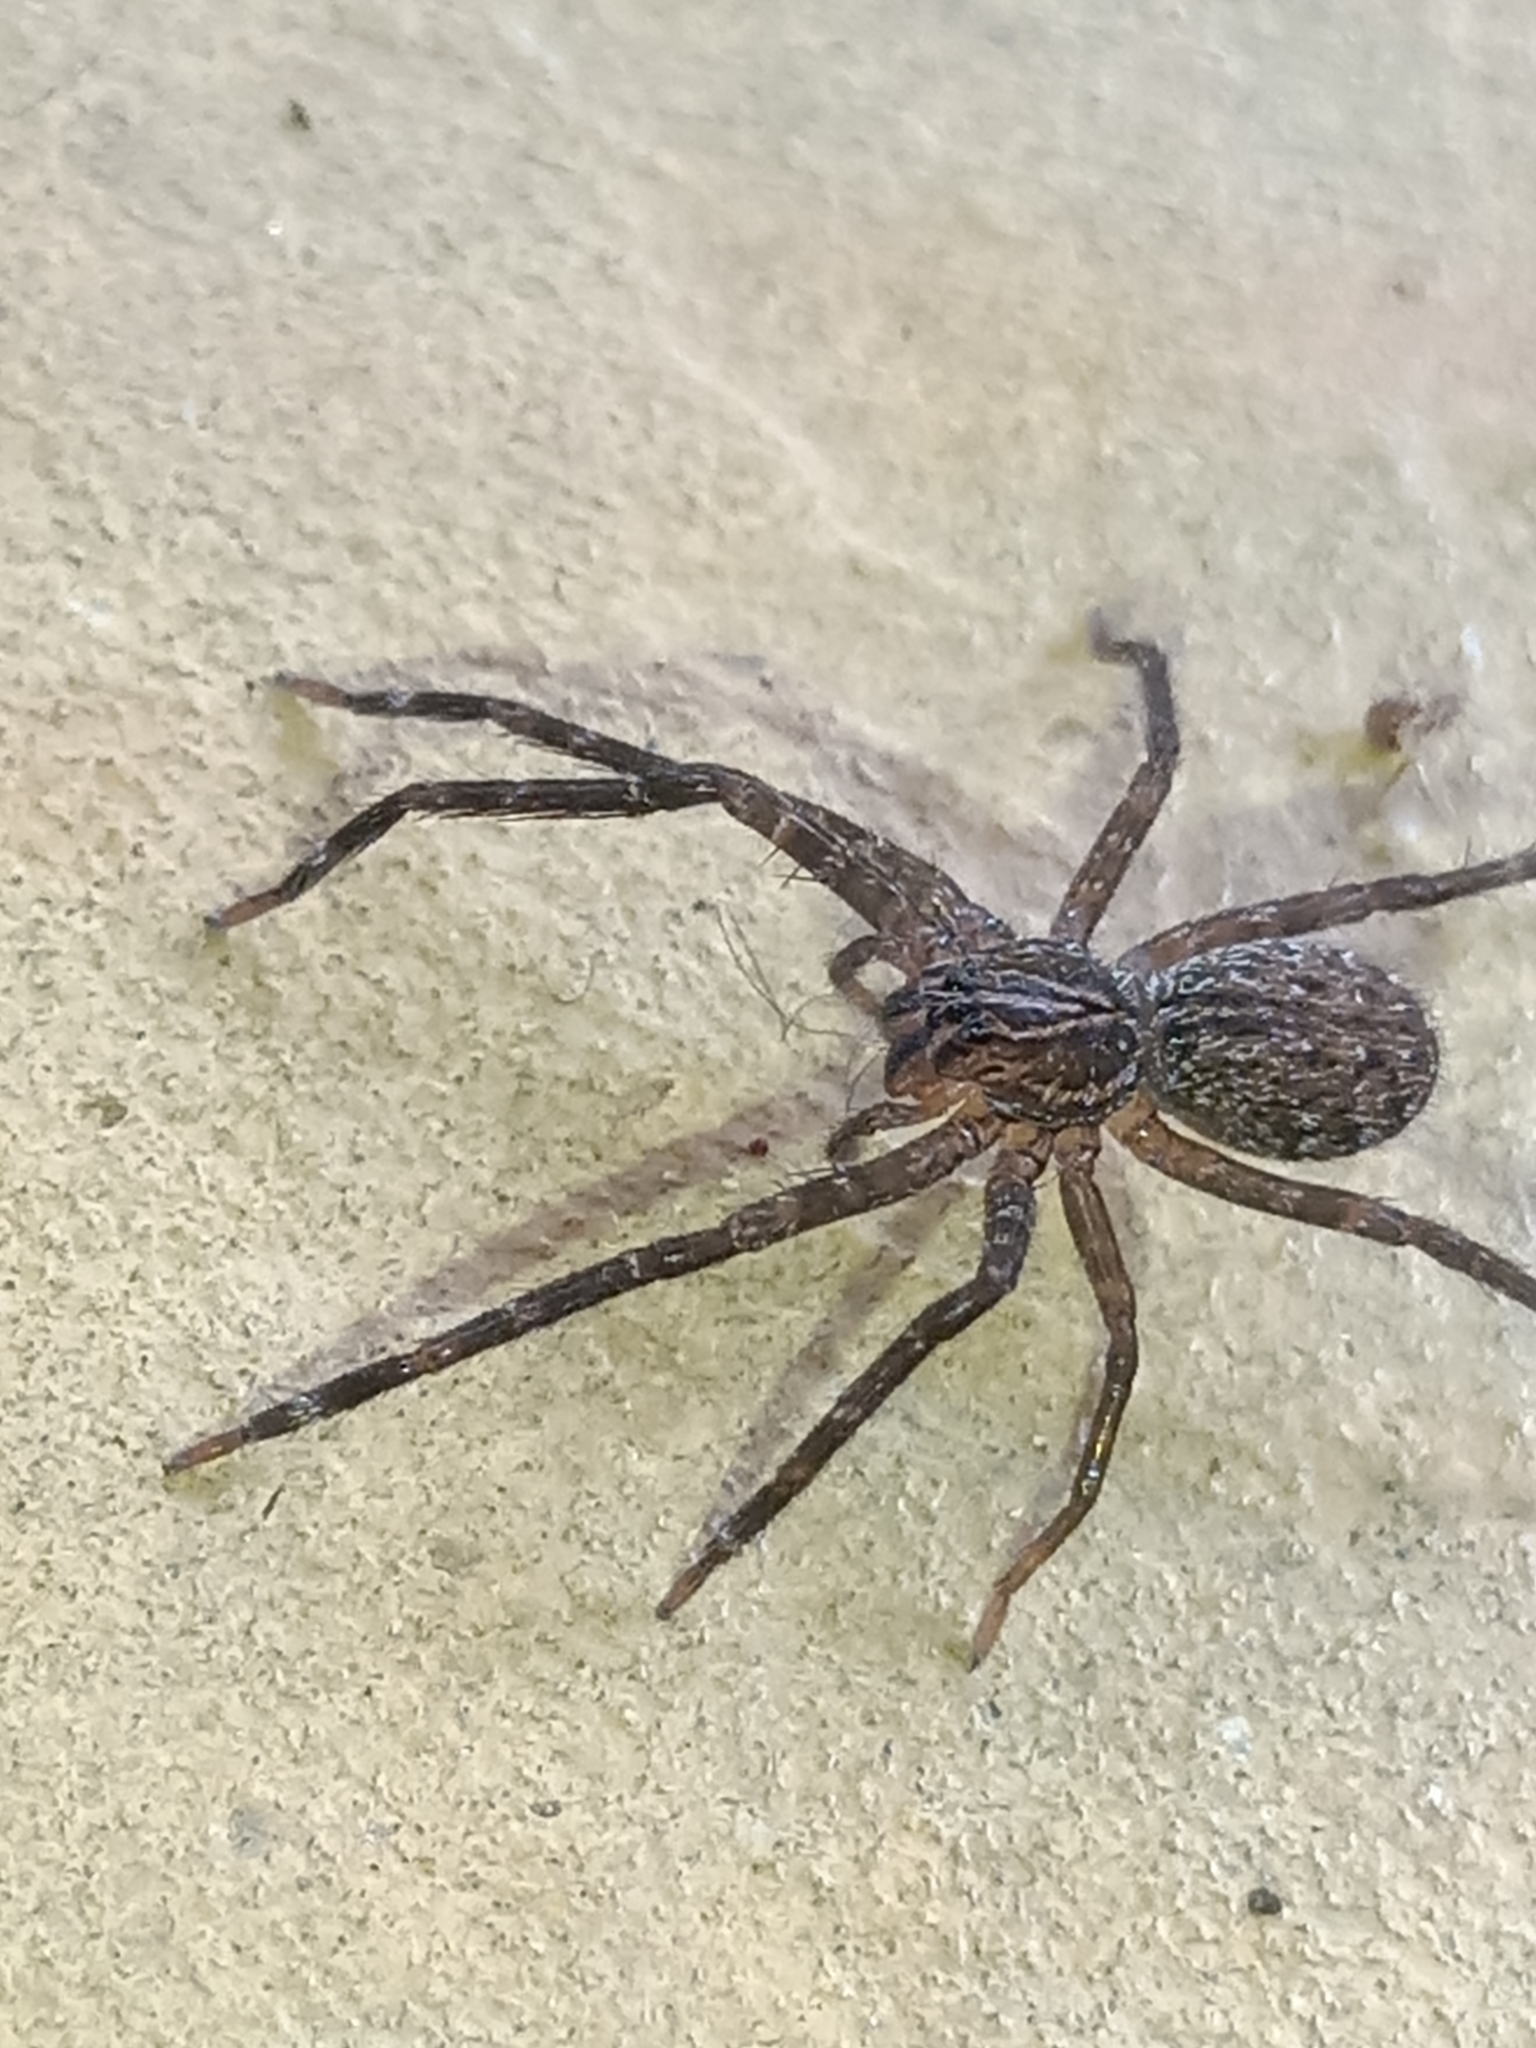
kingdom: Animalia
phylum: Arthropoda
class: Arachnida
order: Araneae
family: Ctenidae
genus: Phoneutria
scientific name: Phoneutria fera
